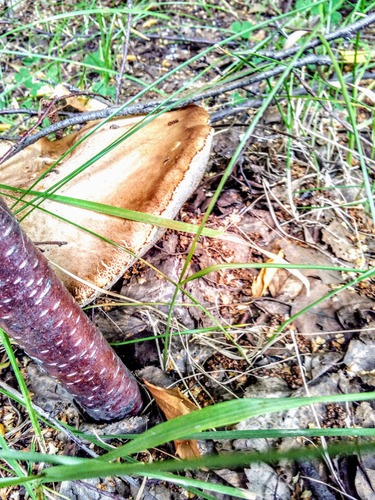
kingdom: Fungi
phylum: Basidiomycota
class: Agaricomycetes
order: Boletales
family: Boletaceae
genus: Leccinum
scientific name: Leccinum
